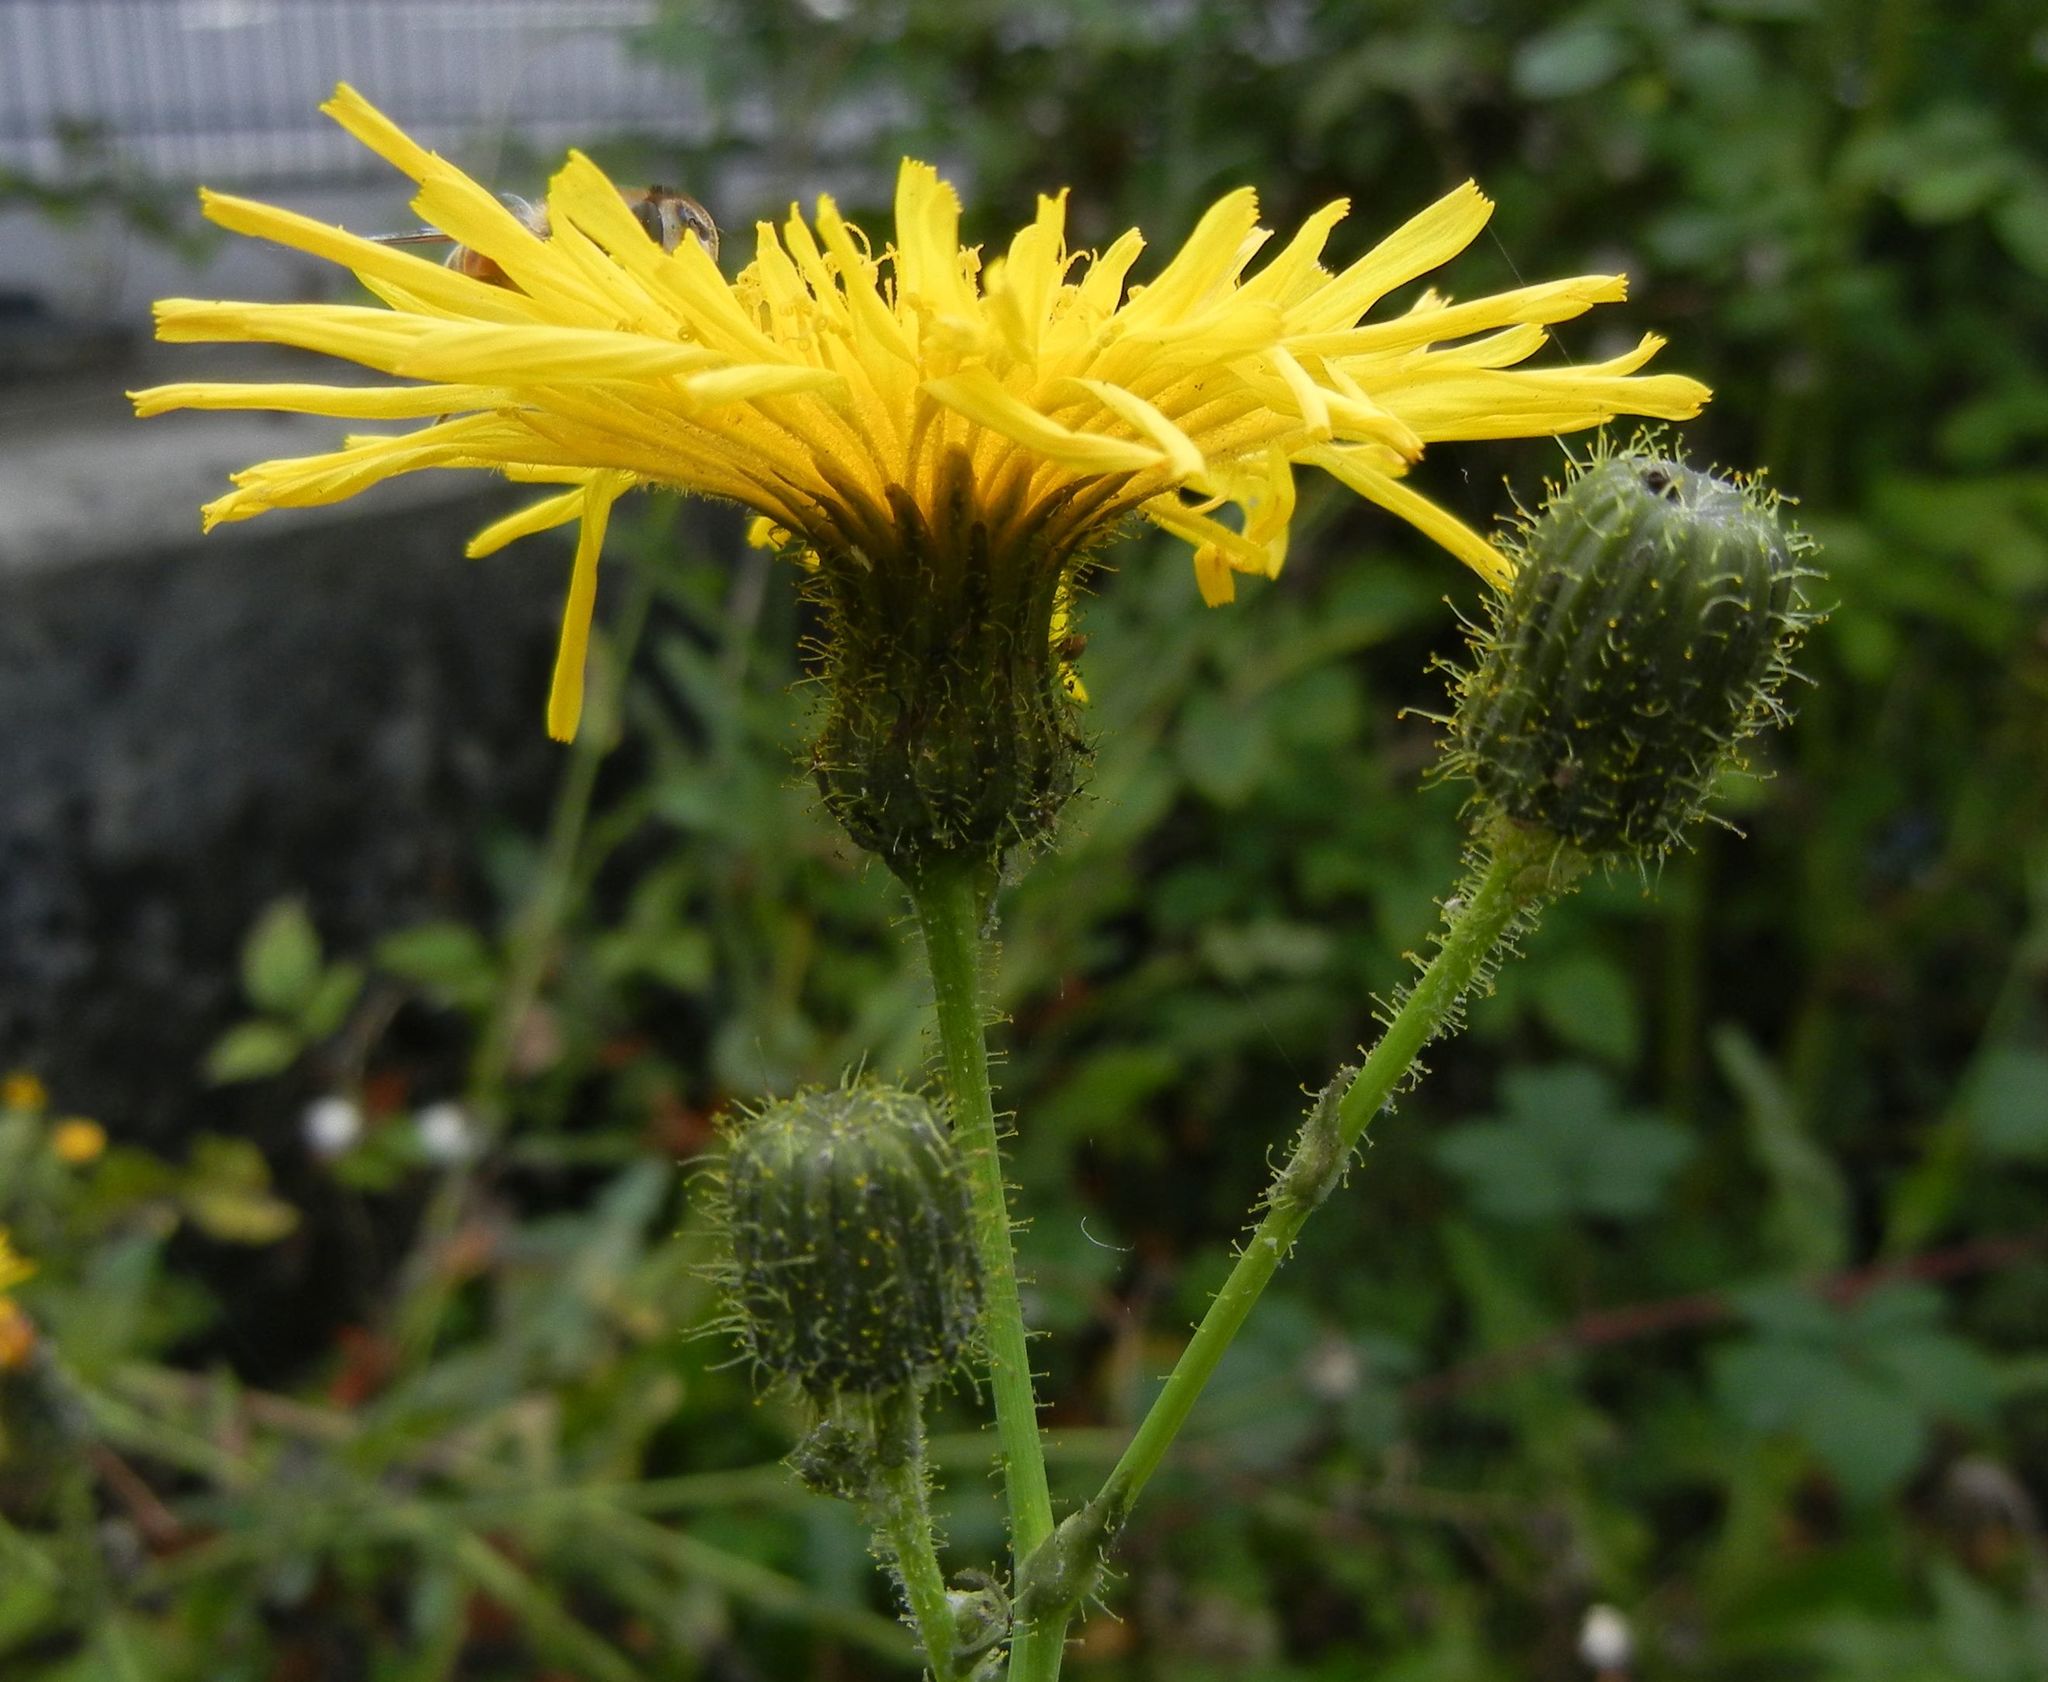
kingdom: Plantae
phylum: Tracheophyta
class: Magnoliopsida
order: Asterales
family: Asteraceae
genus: Sonchus
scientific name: Sonchus arvensis
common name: Perennial sow-thistle
